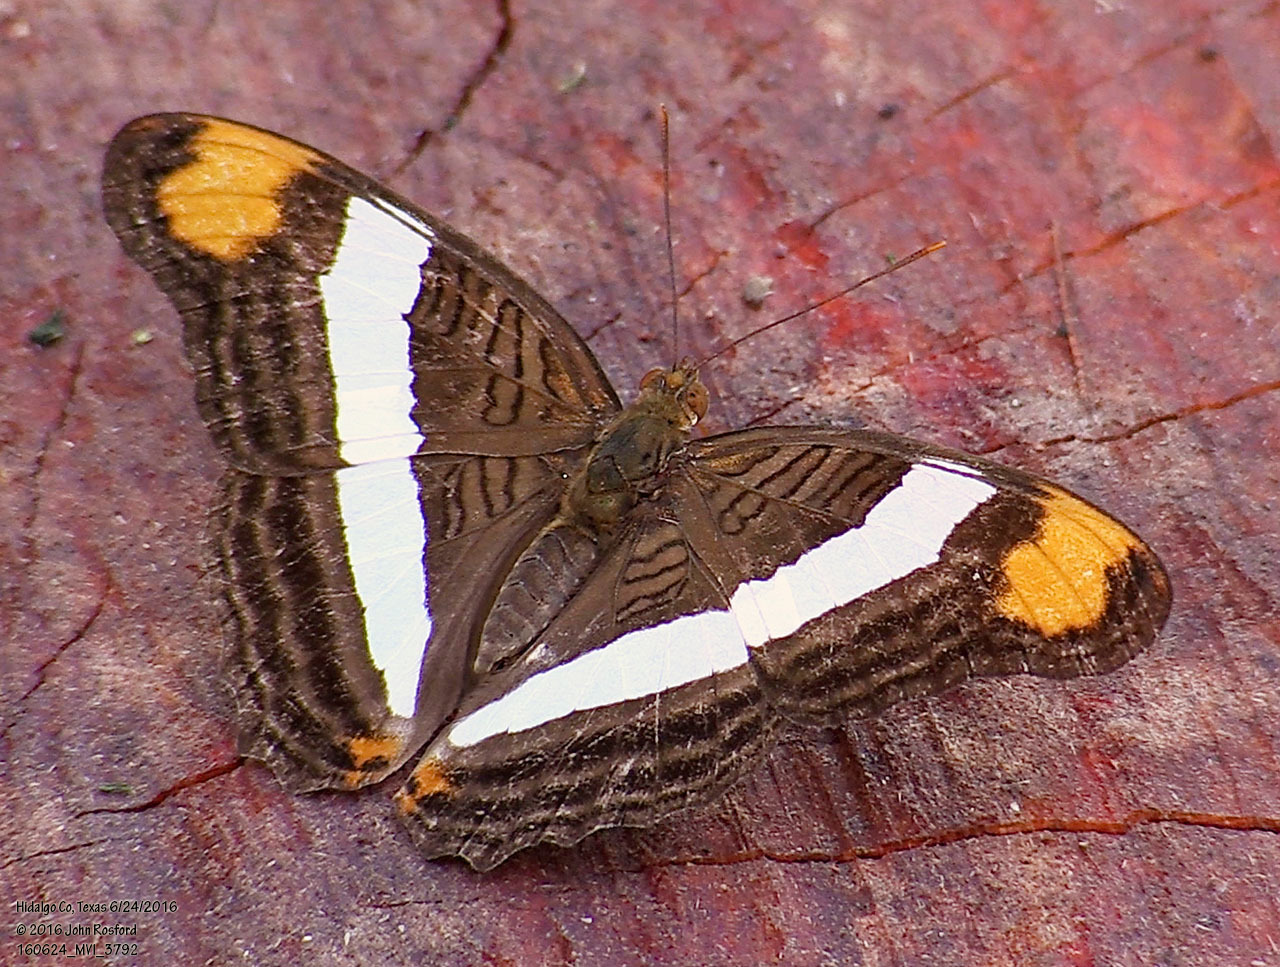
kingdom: Animalia
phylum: Arthropoda
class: Insecta
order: Lepidoptera
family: Nymphalidae
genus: Limenitis
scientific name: Limenitis fessonia
